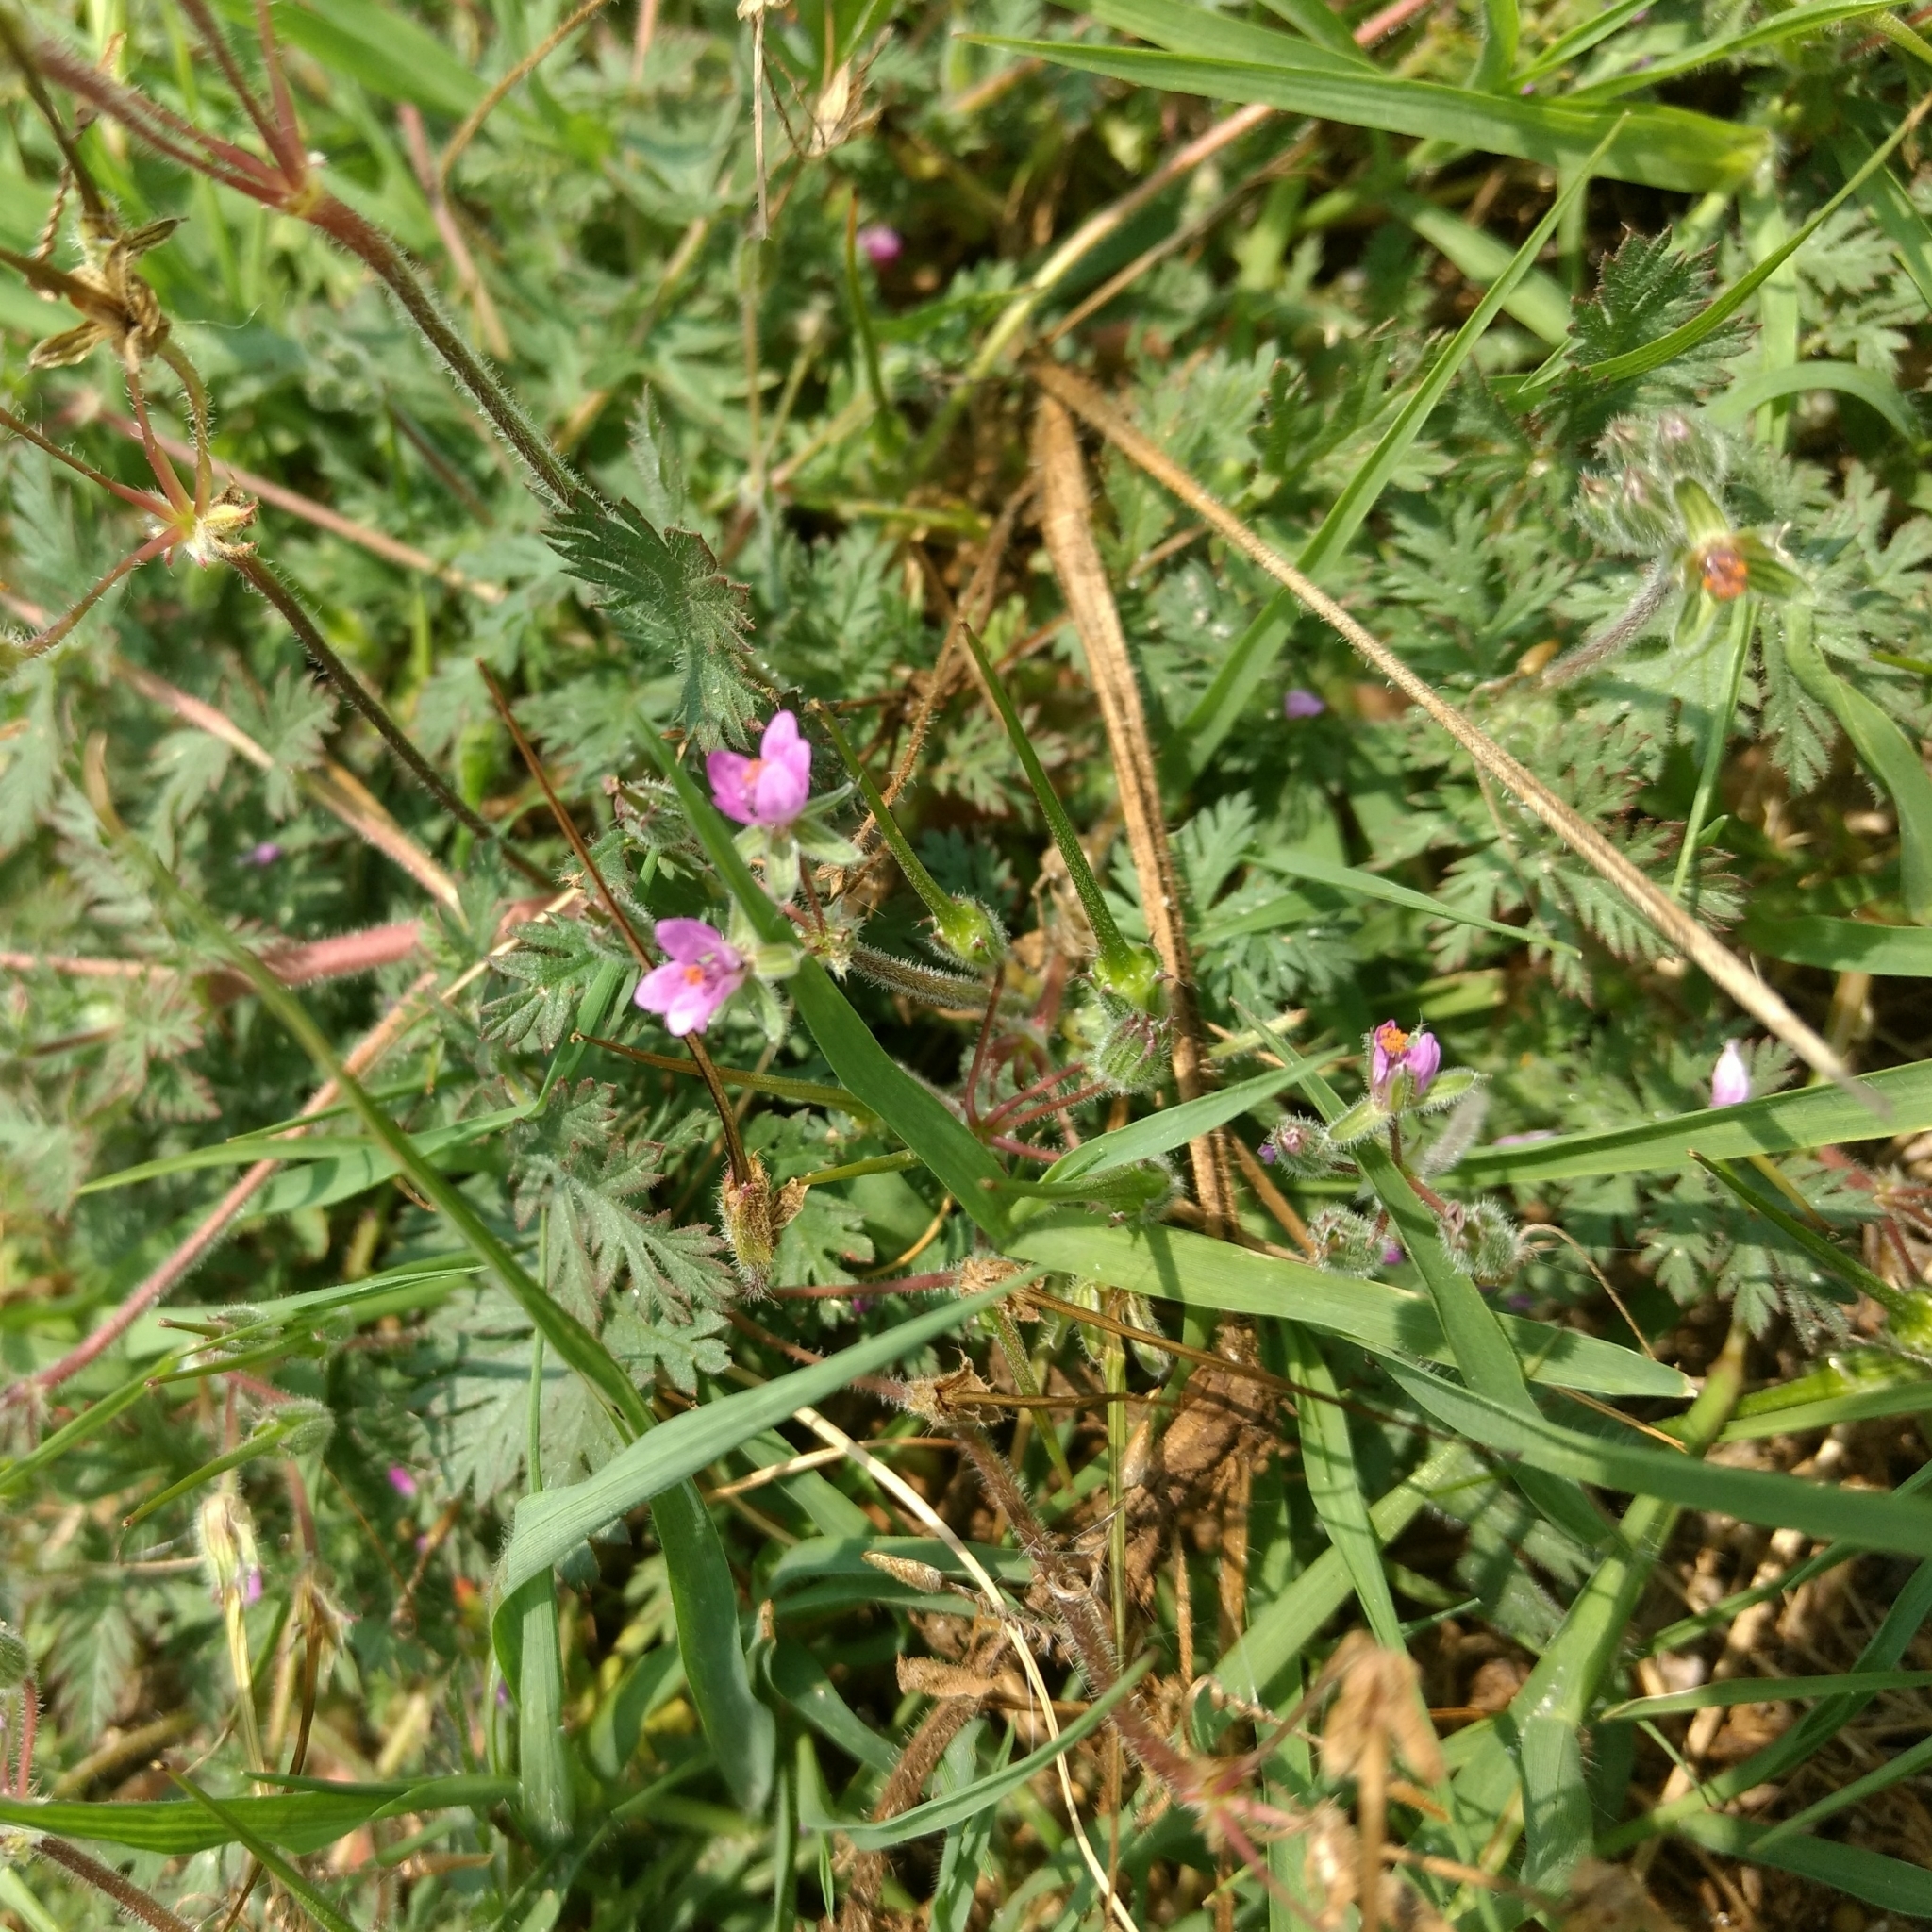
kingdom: Plantae
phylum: Tracheophyta
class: Magnoliopsida
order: Geraniales
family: Geraniaceae
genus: Erodium
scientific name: Erodium cicutarium
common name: Common stork's-bill
